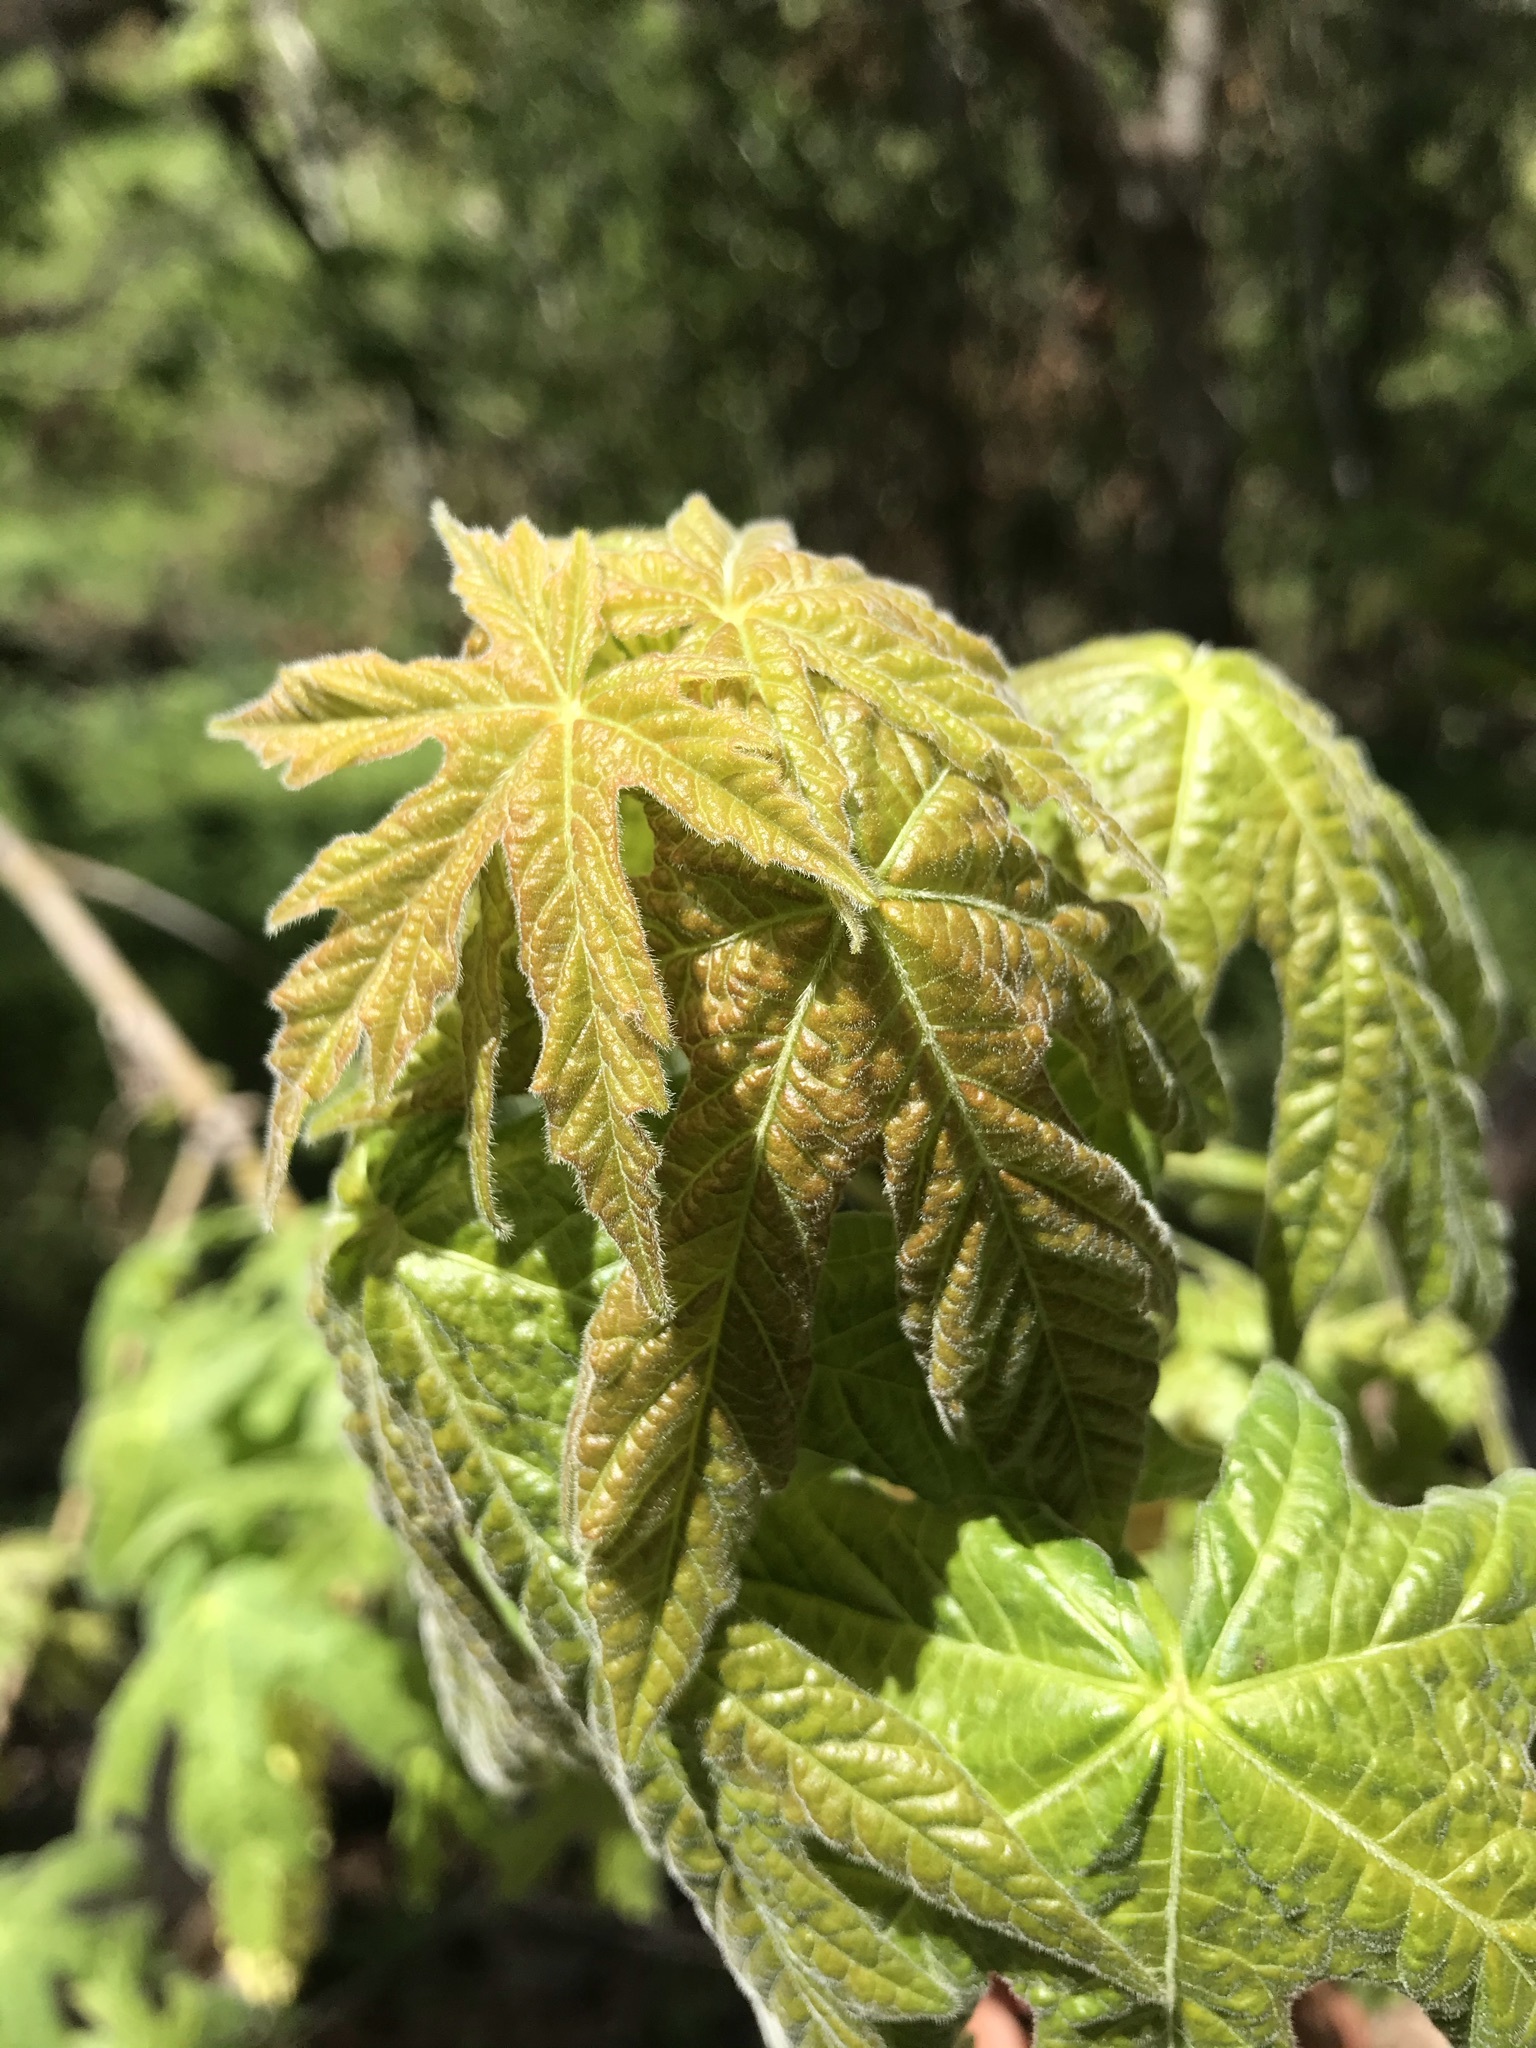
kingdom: Plantae
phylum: Tracheophyta
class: Magnoliopsida
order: Sapindales
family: Sapindaceae
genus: Acer
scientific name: Acer macrophyllum
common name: Oregon maple
